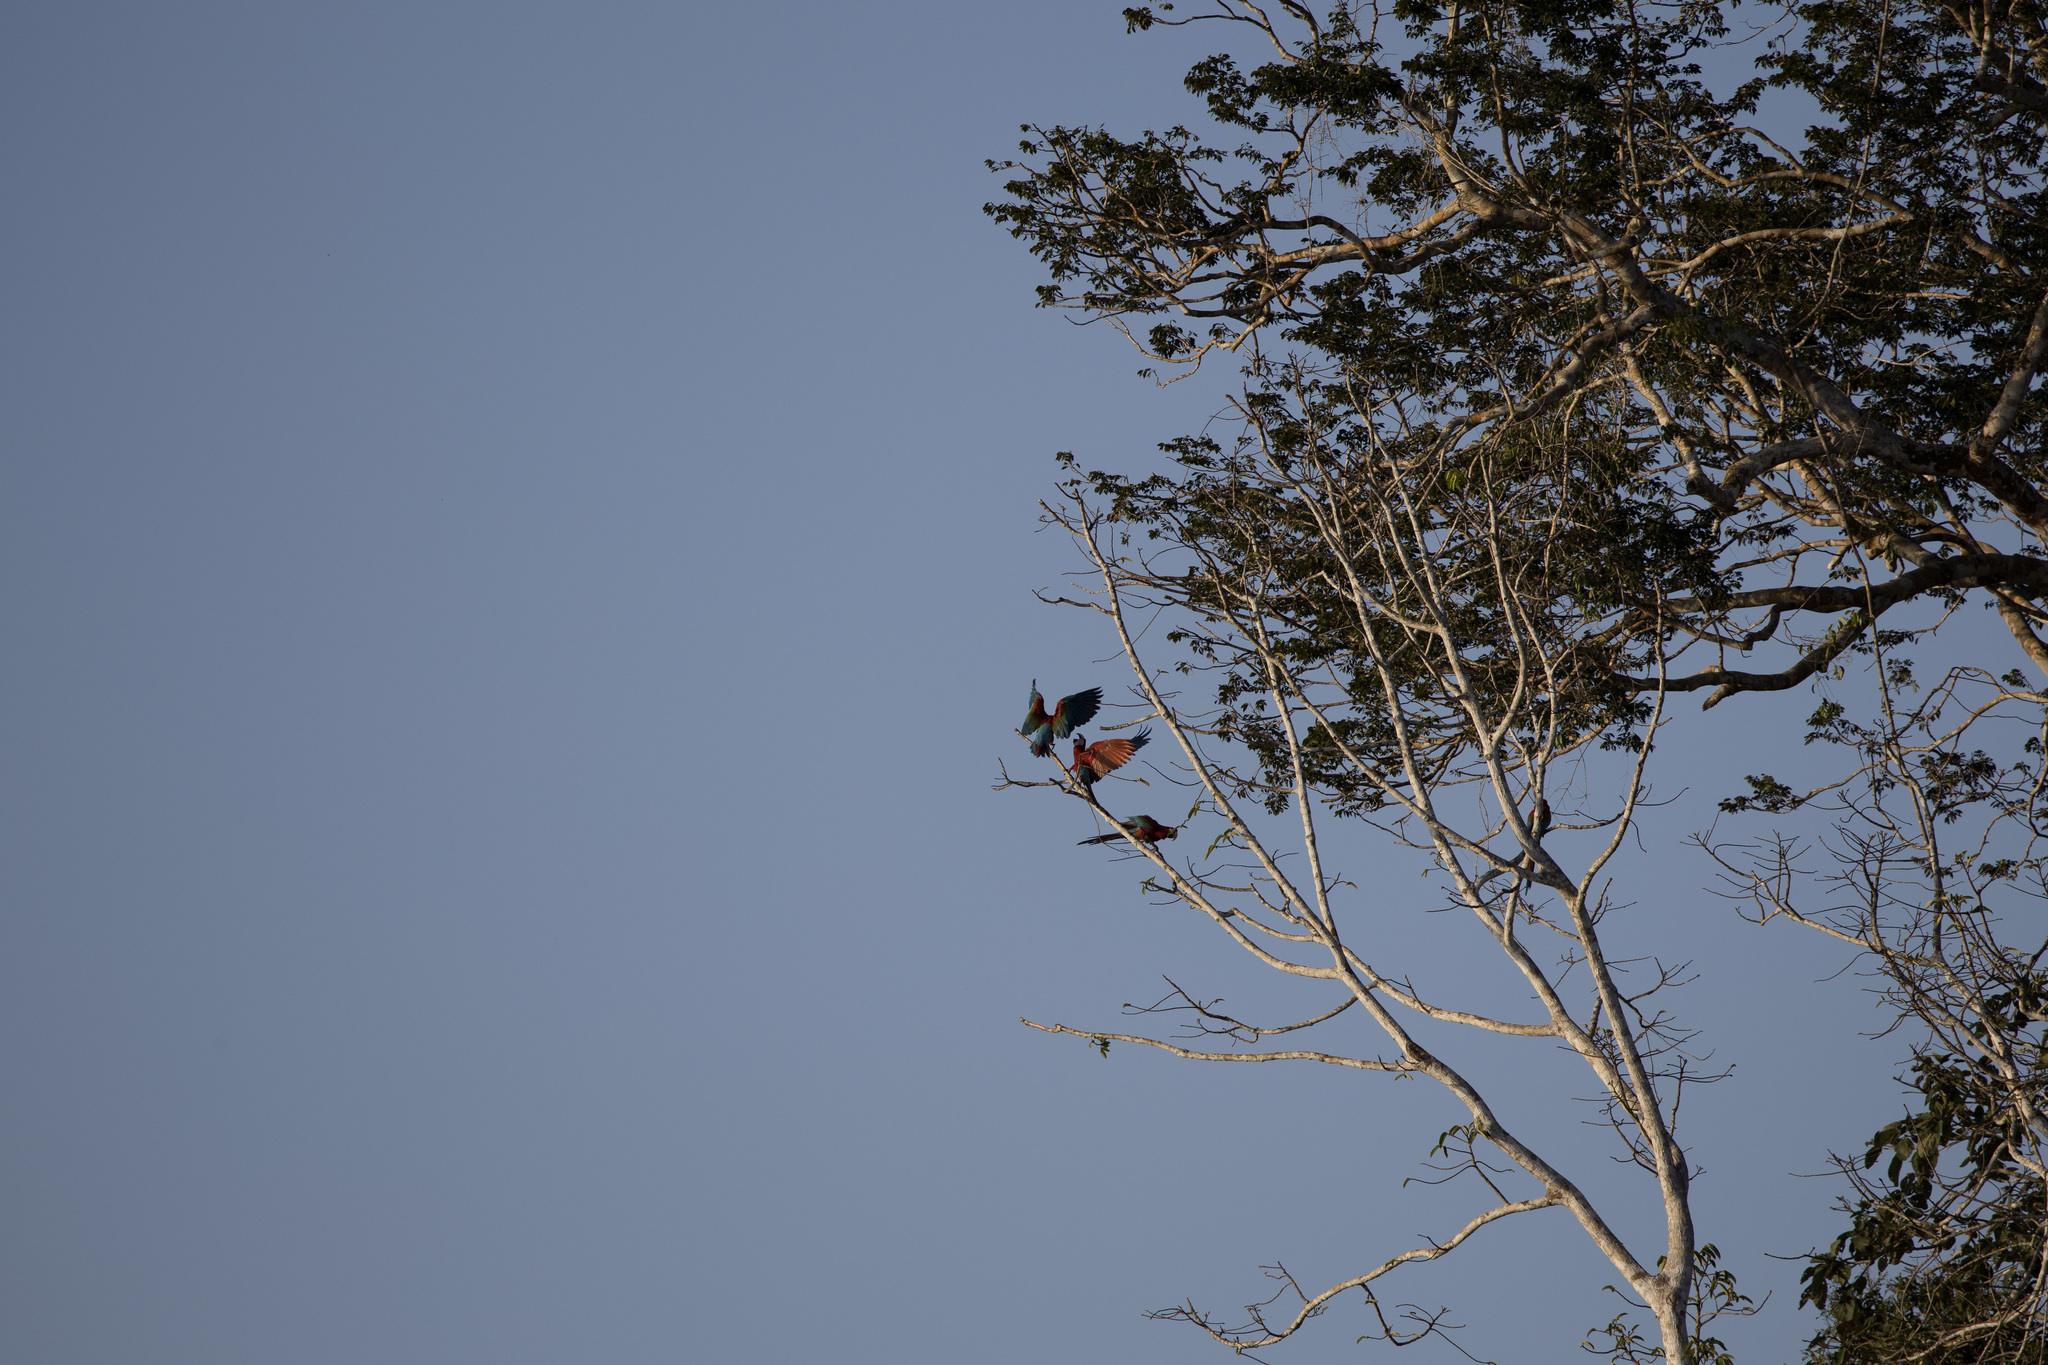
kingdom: Animalia
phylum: Chordata
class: Aves
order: Psittaciformes
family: Psittacidae
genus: Ara
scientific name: Ara chloropterus
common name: Red-and-green macaw
